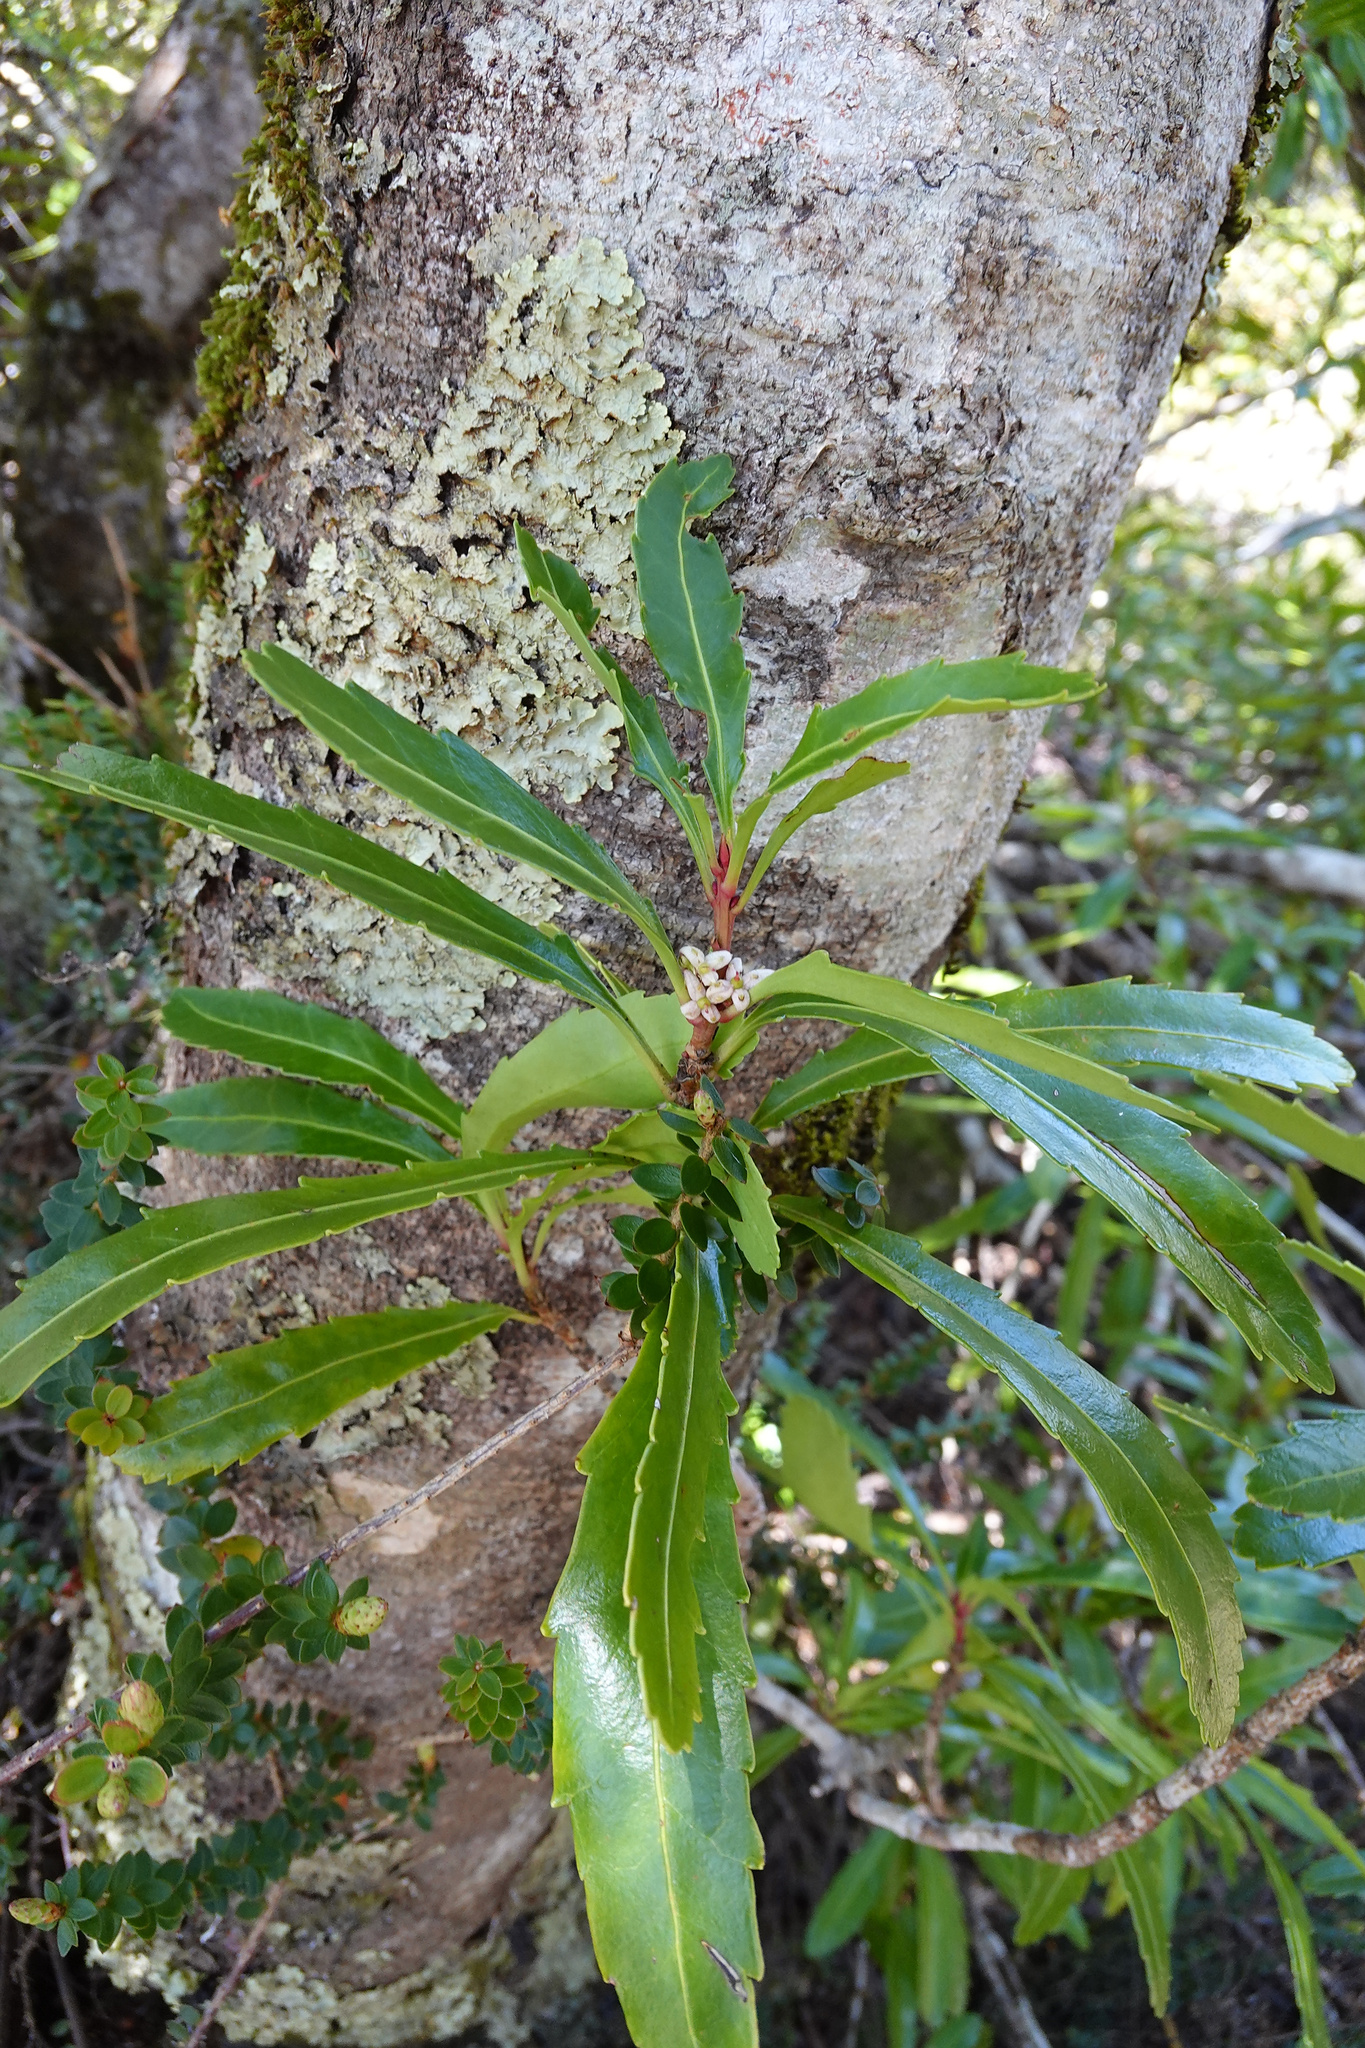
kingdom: Plantae
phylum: Tracheophyta
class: Magnoliopsida
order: Proteales
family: Proteaceae
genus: Cenarrhenes
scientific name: Cenarrhenes nitida
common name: Native plum
